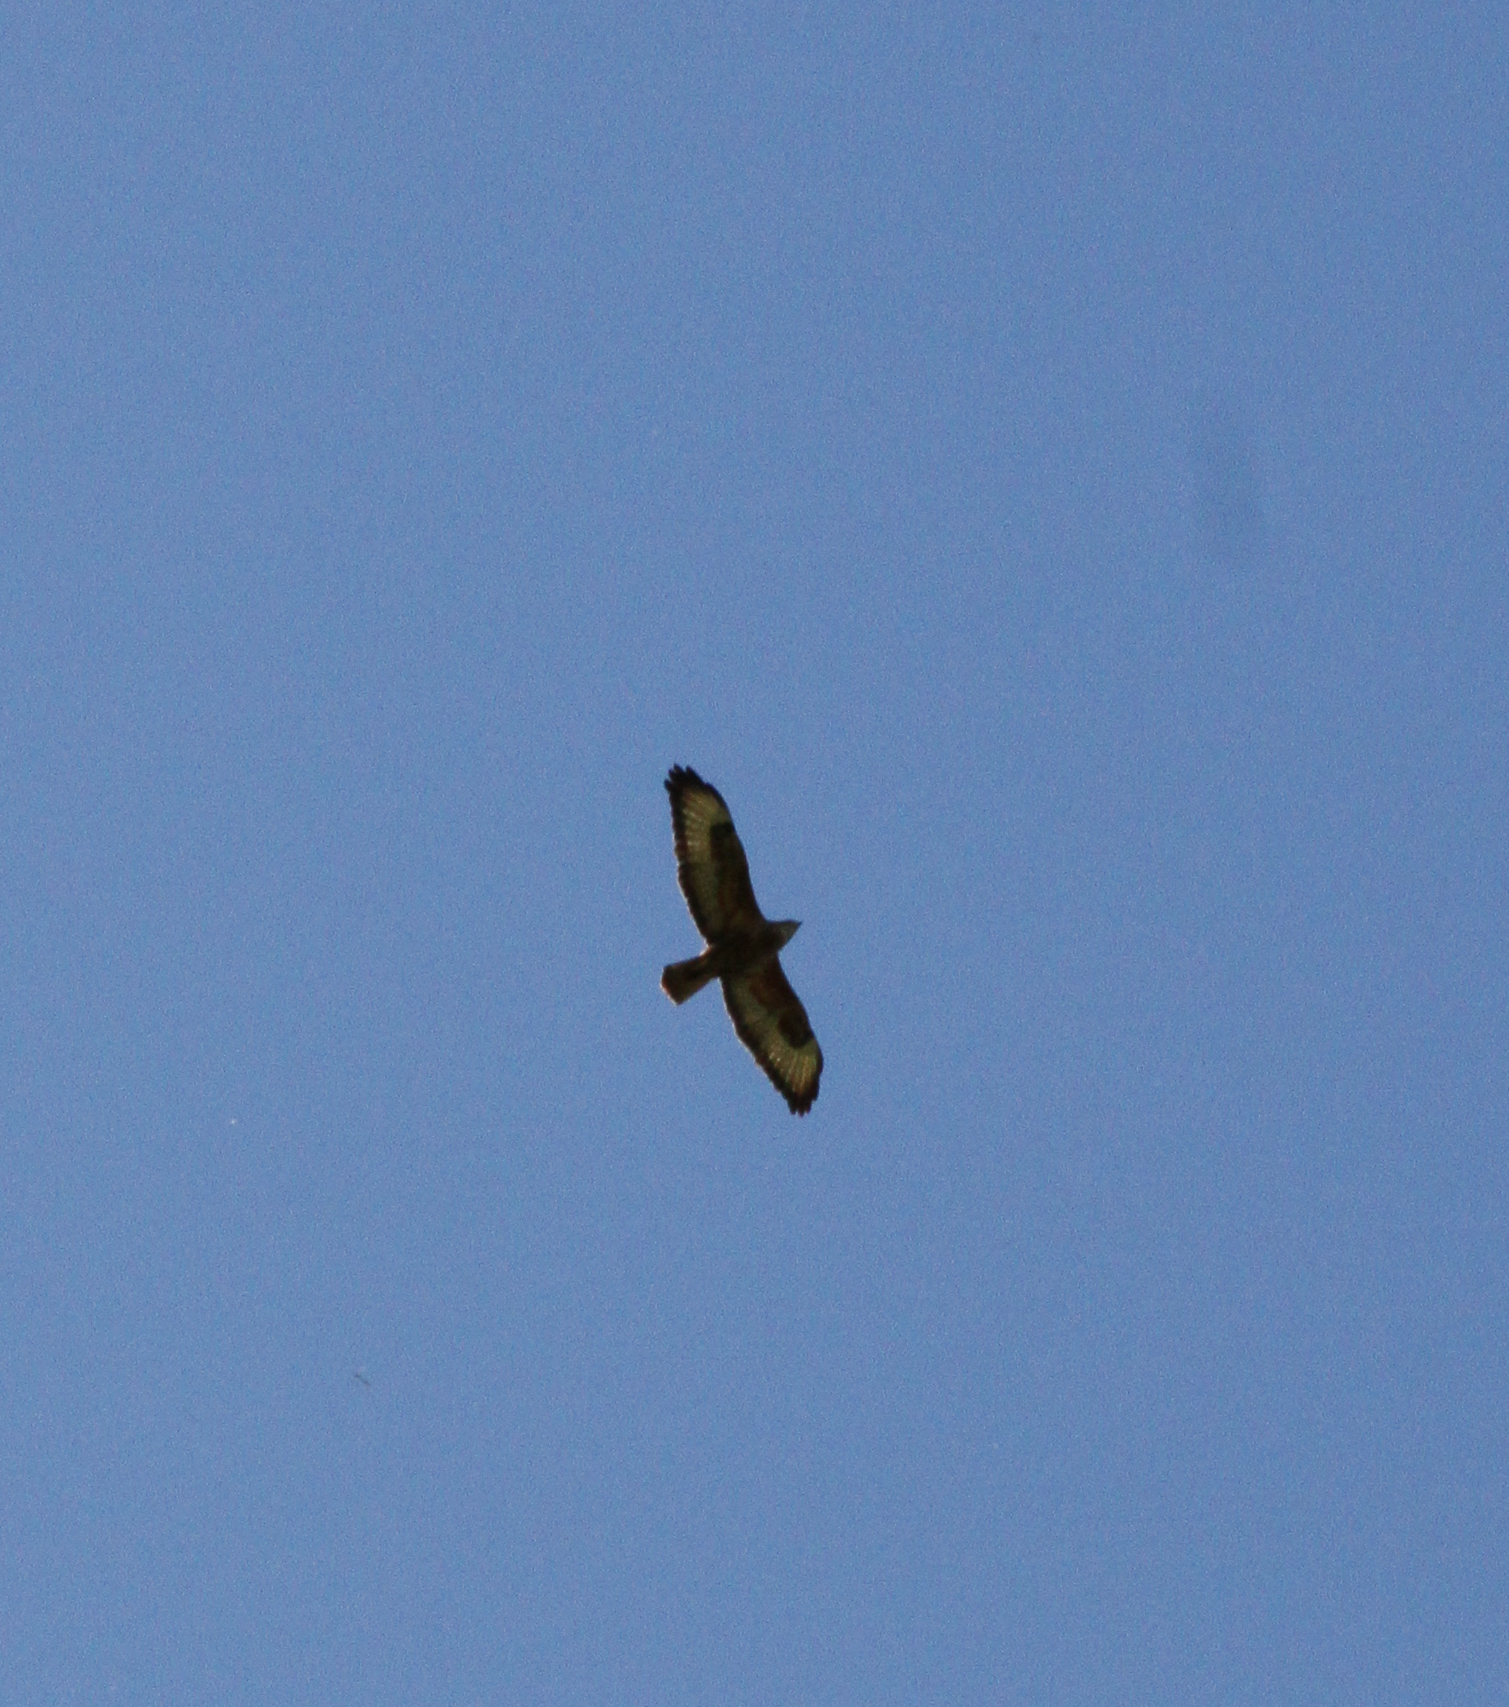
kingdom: Animalia
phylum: Chordata
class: Aves
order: Accipitriformes
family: Accipitridae
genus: Buteo
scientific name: Buteo buteo
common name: Common buzzard
